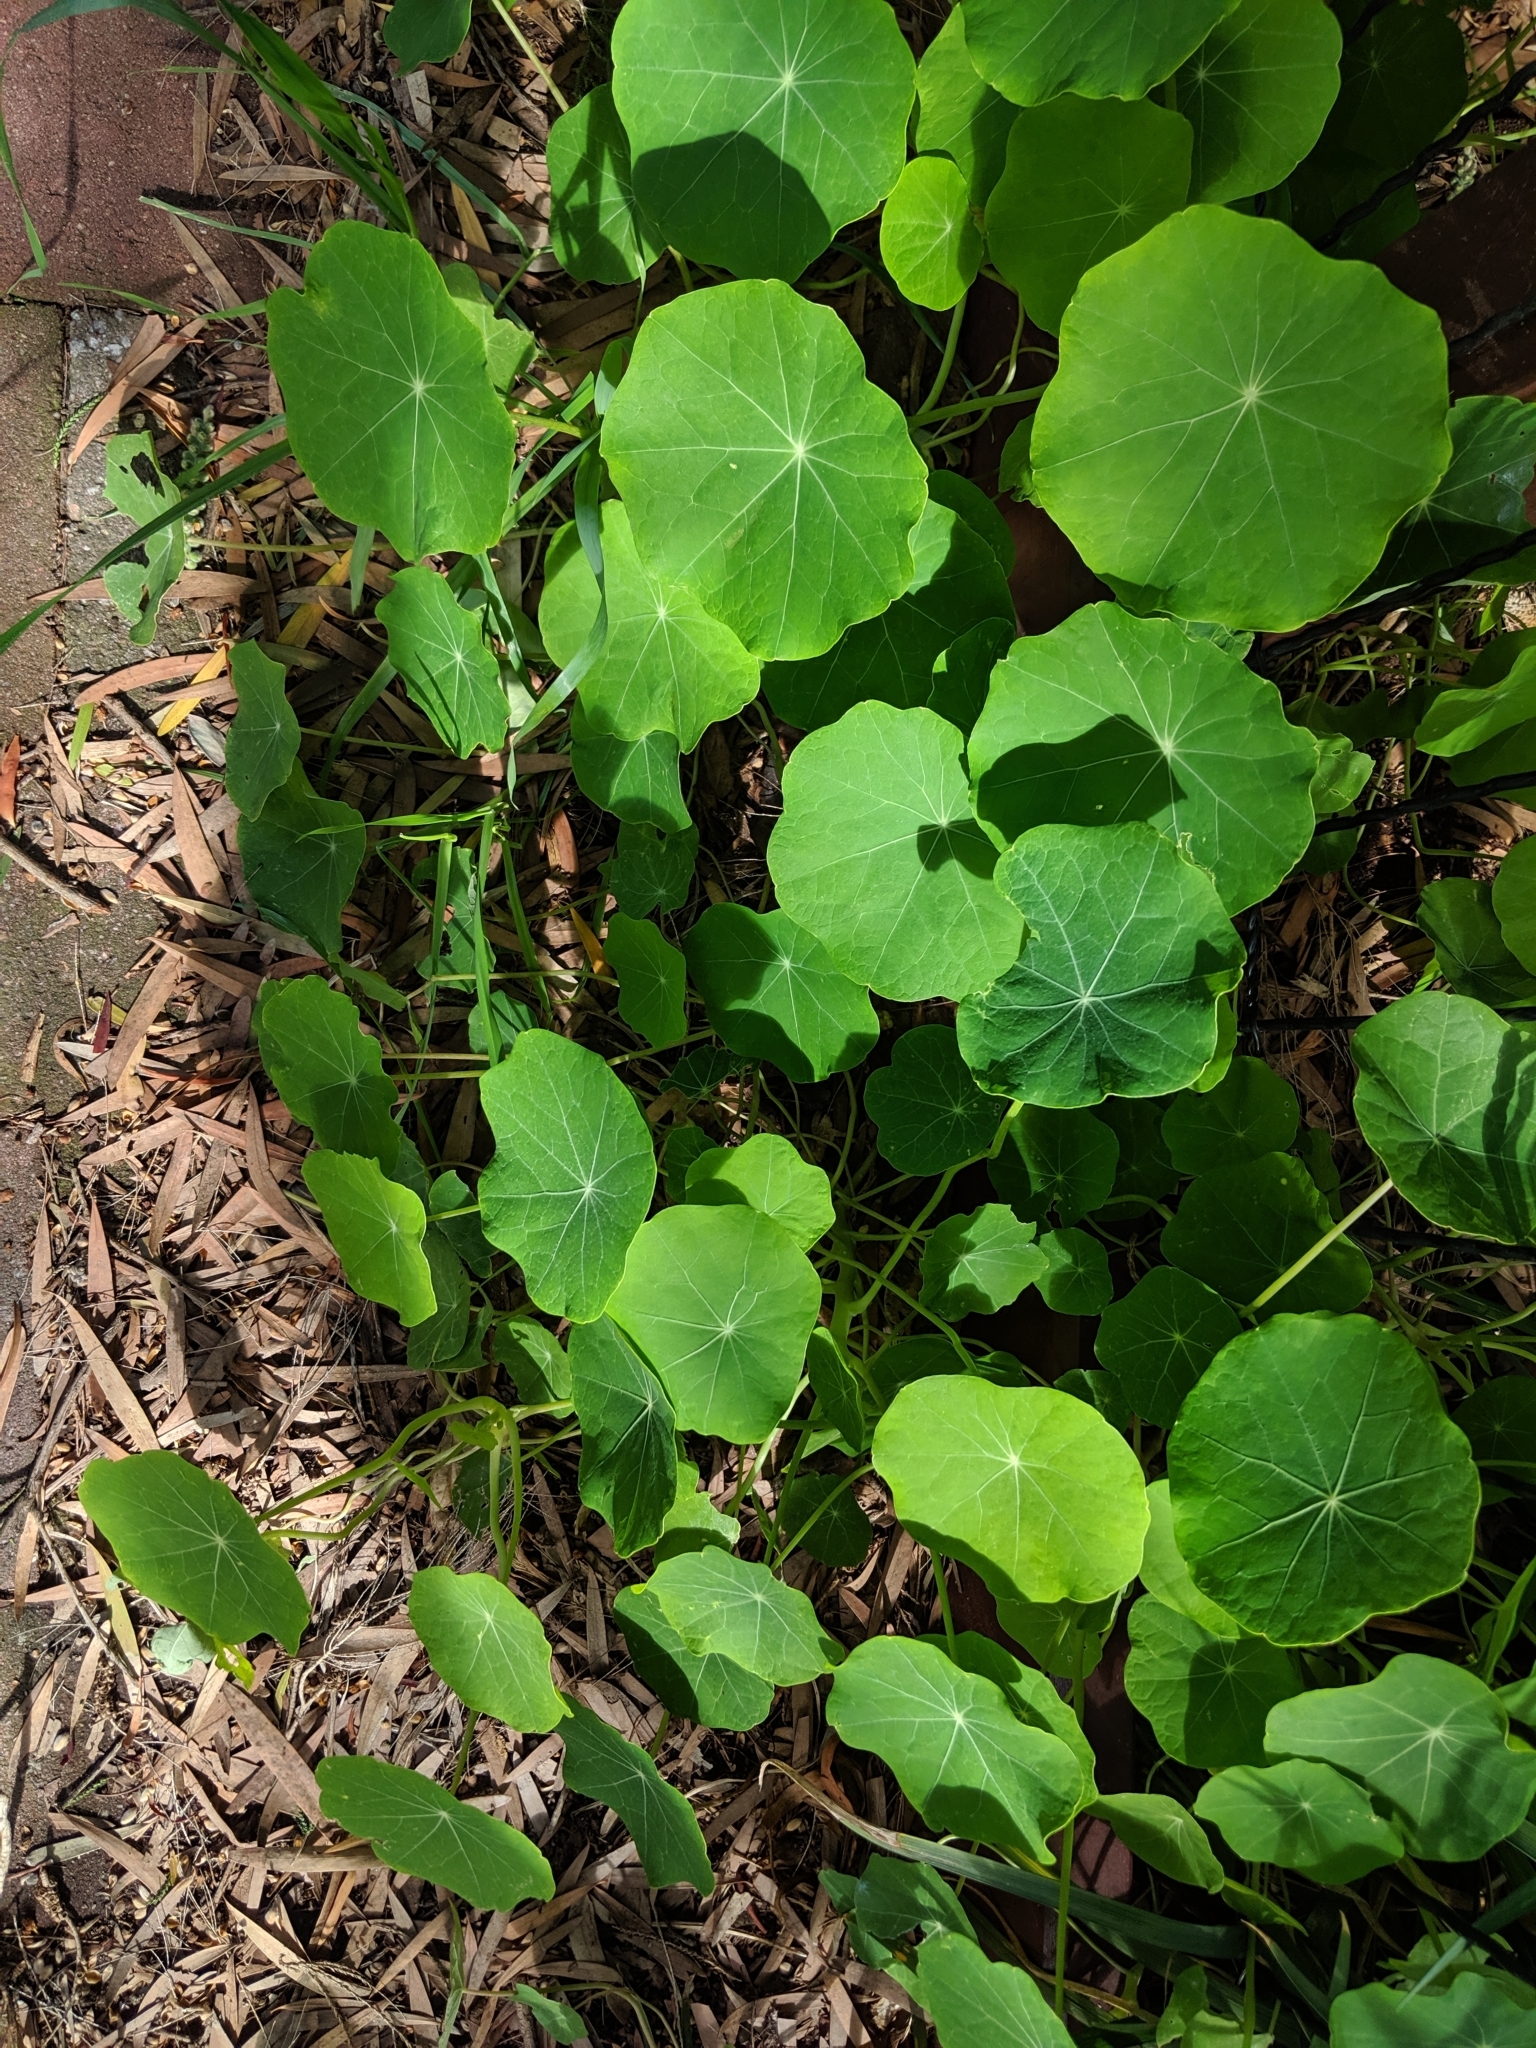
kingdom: Plantae
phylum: Tracheophyta
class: Magnoliopsida
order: Brassicales
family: Tropaeolaceae
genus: Tropaeolum
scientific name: Tropaeolum majus
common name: Nasturtium
